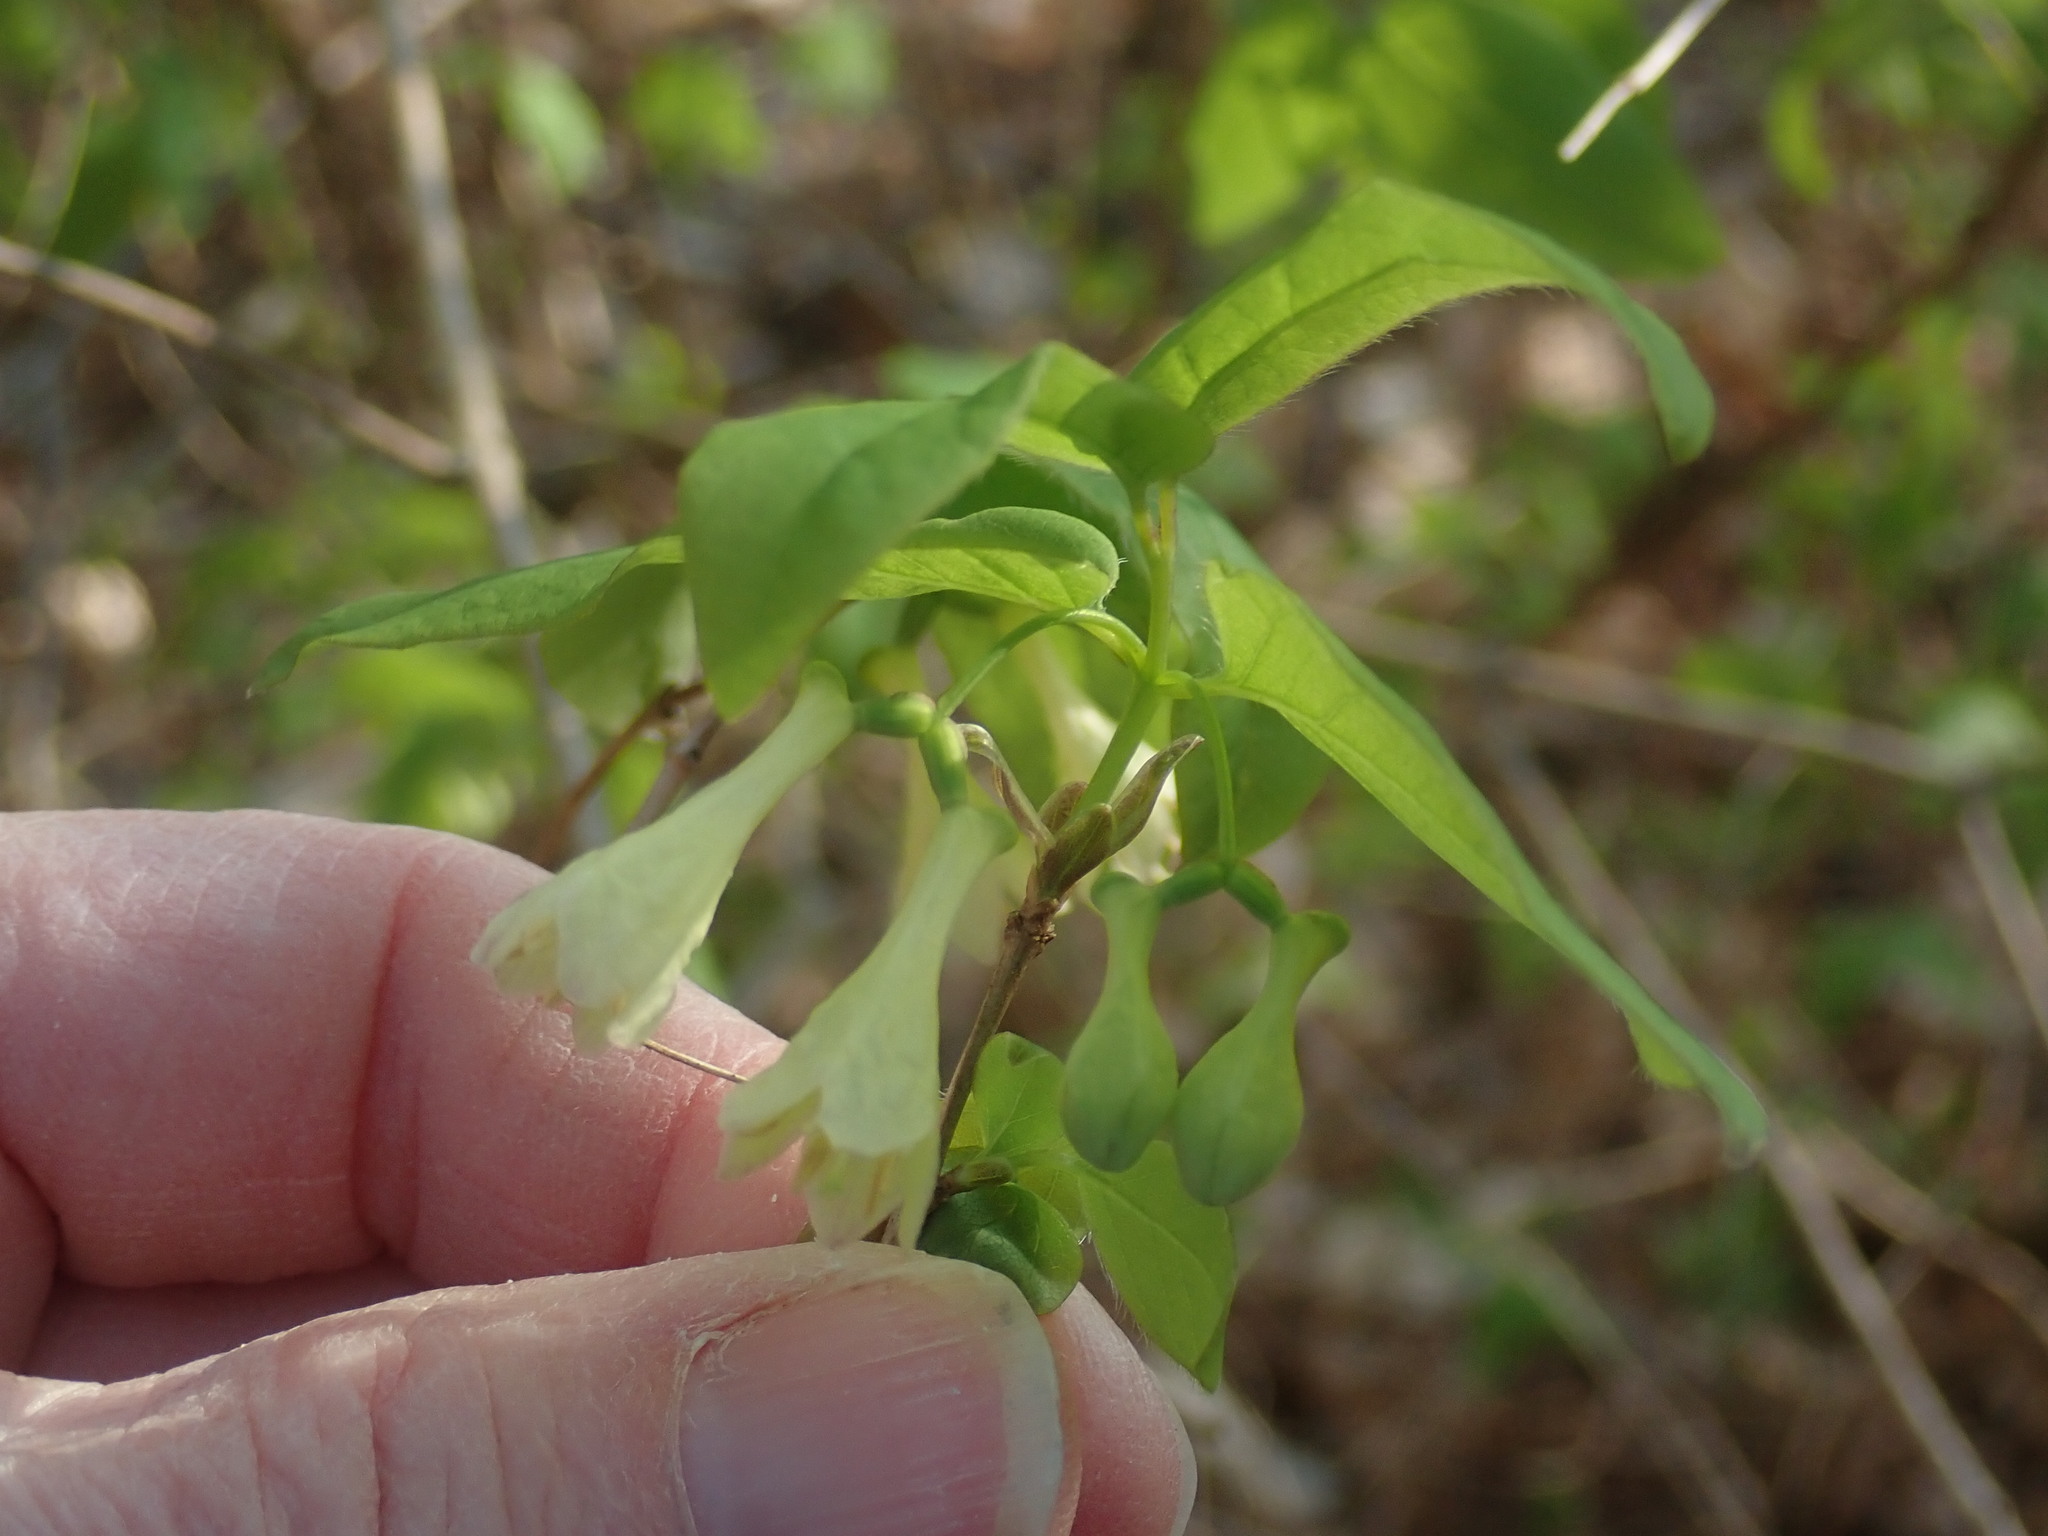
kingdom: Plantae
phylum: Tracheophyta
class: Magnoliopsida
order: Dipsacales
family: Caprifoliaceae
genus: Lonicera
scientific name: Lonicera canadensis
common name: American fly-honeysuckle
